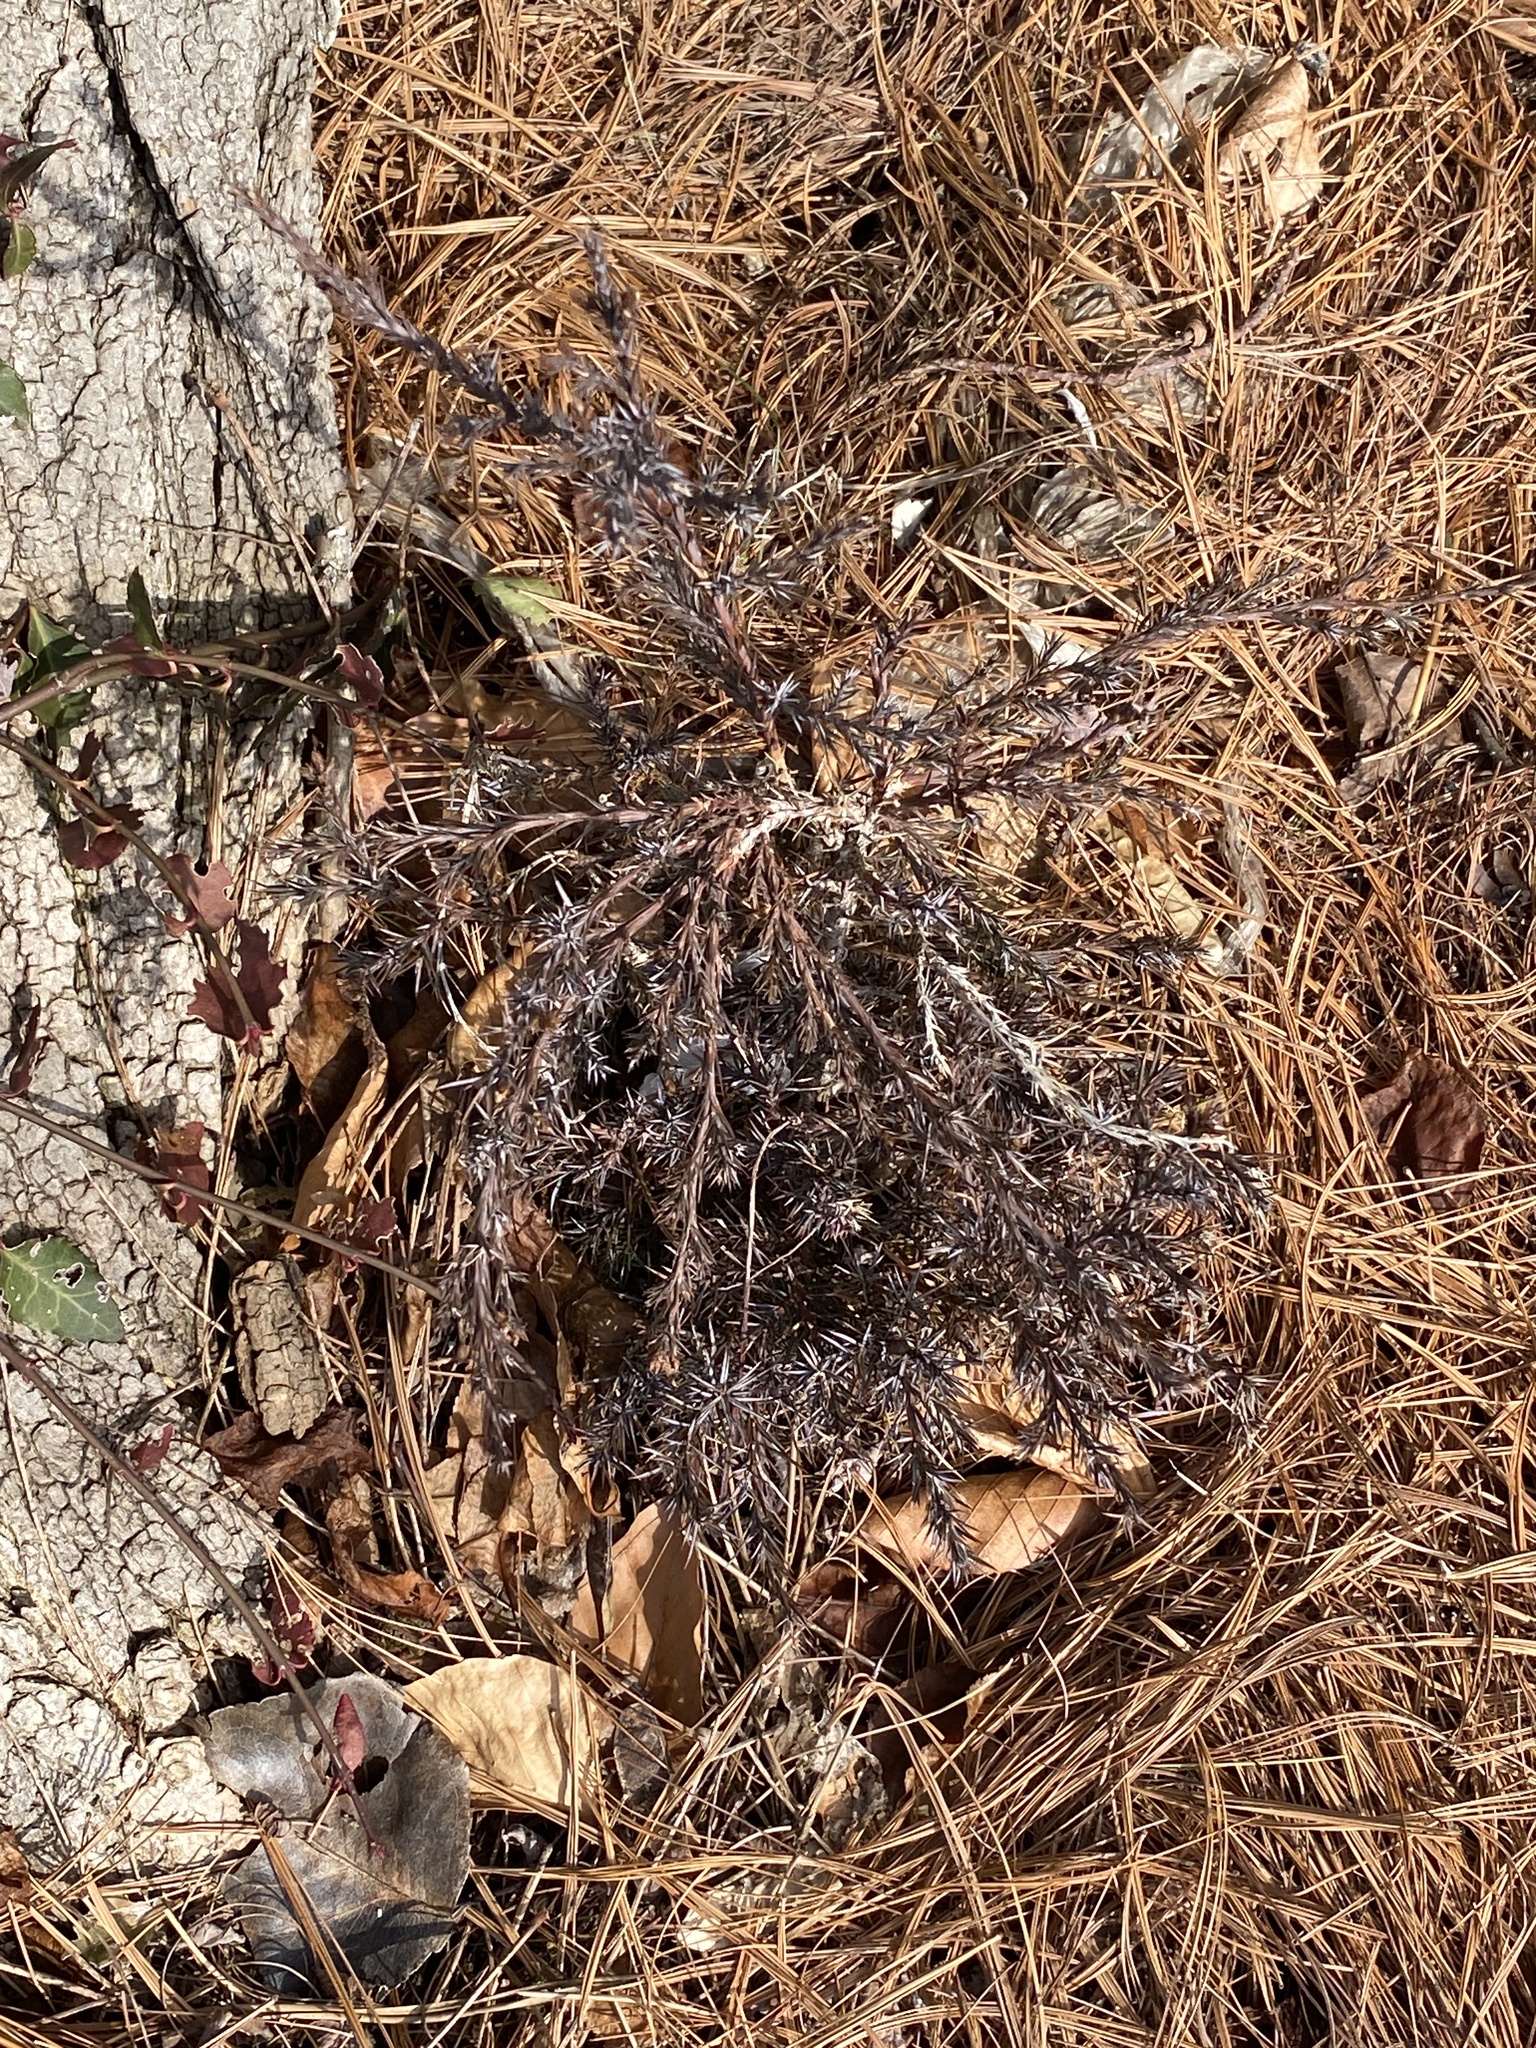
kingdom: Plantae
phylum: Tracheophyta
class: Pinopsida
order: Pinales
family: Cupressaceae
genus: Juniperus
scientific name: Juniperus virginiana
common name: Red juniper
